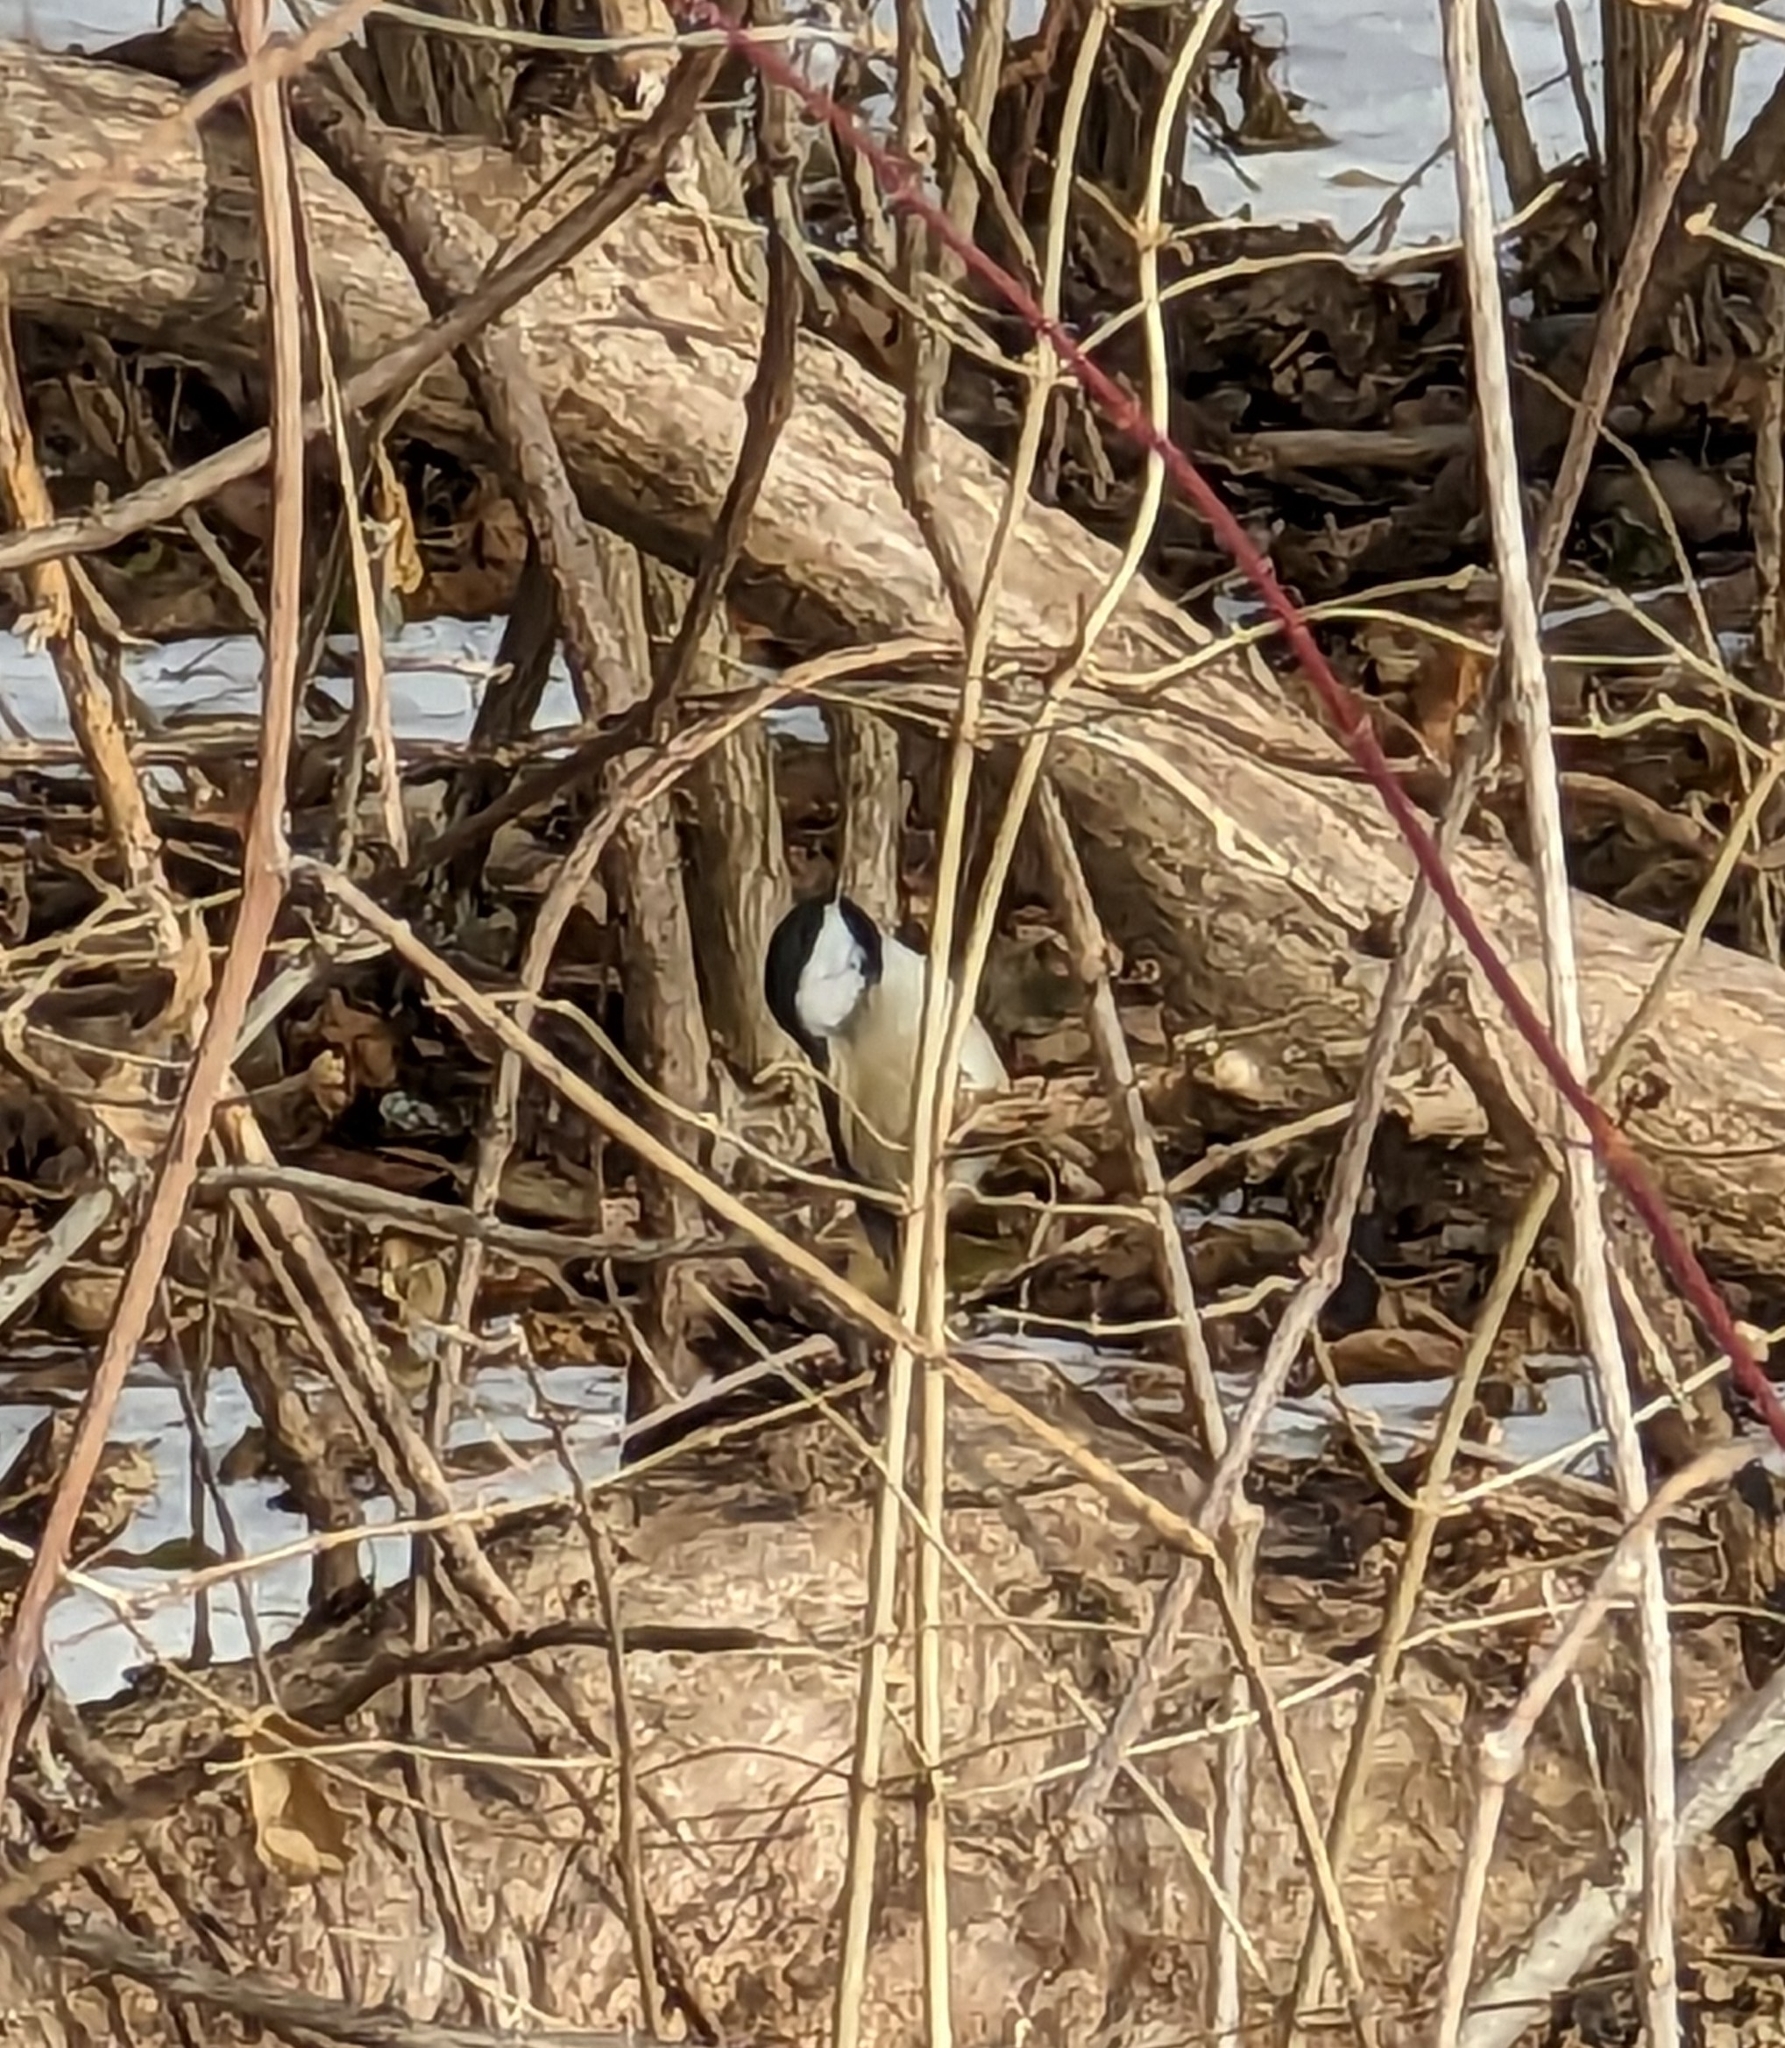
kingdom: Animalia
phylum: Chordata
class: Aves
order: Passeriformes
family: Paridae
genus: Poecile
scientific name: Poecile atricapillus
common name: Black-capped chickadee
